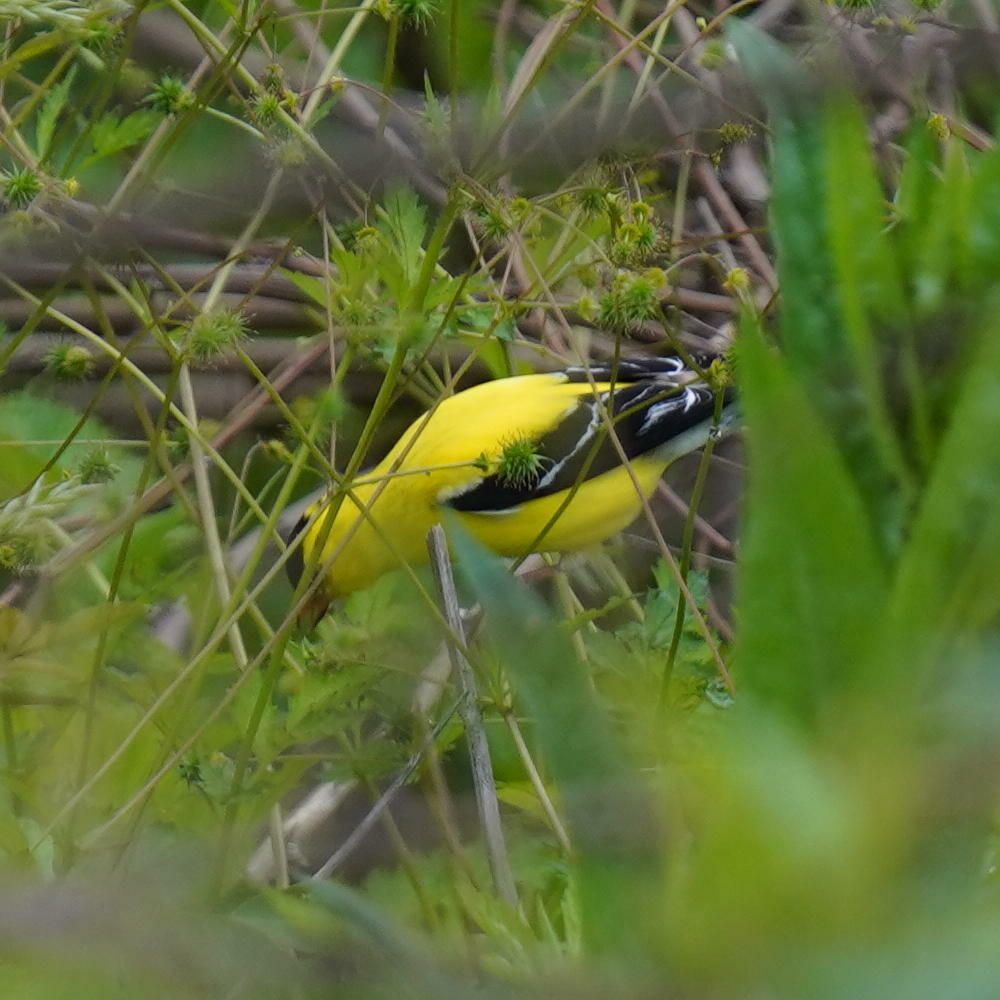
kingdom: Animalia
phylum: Chordata
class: Aves
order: Passeriformes
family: Fringillidae
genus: Spinus
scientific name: Spinus tristis
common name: American goldfinch
